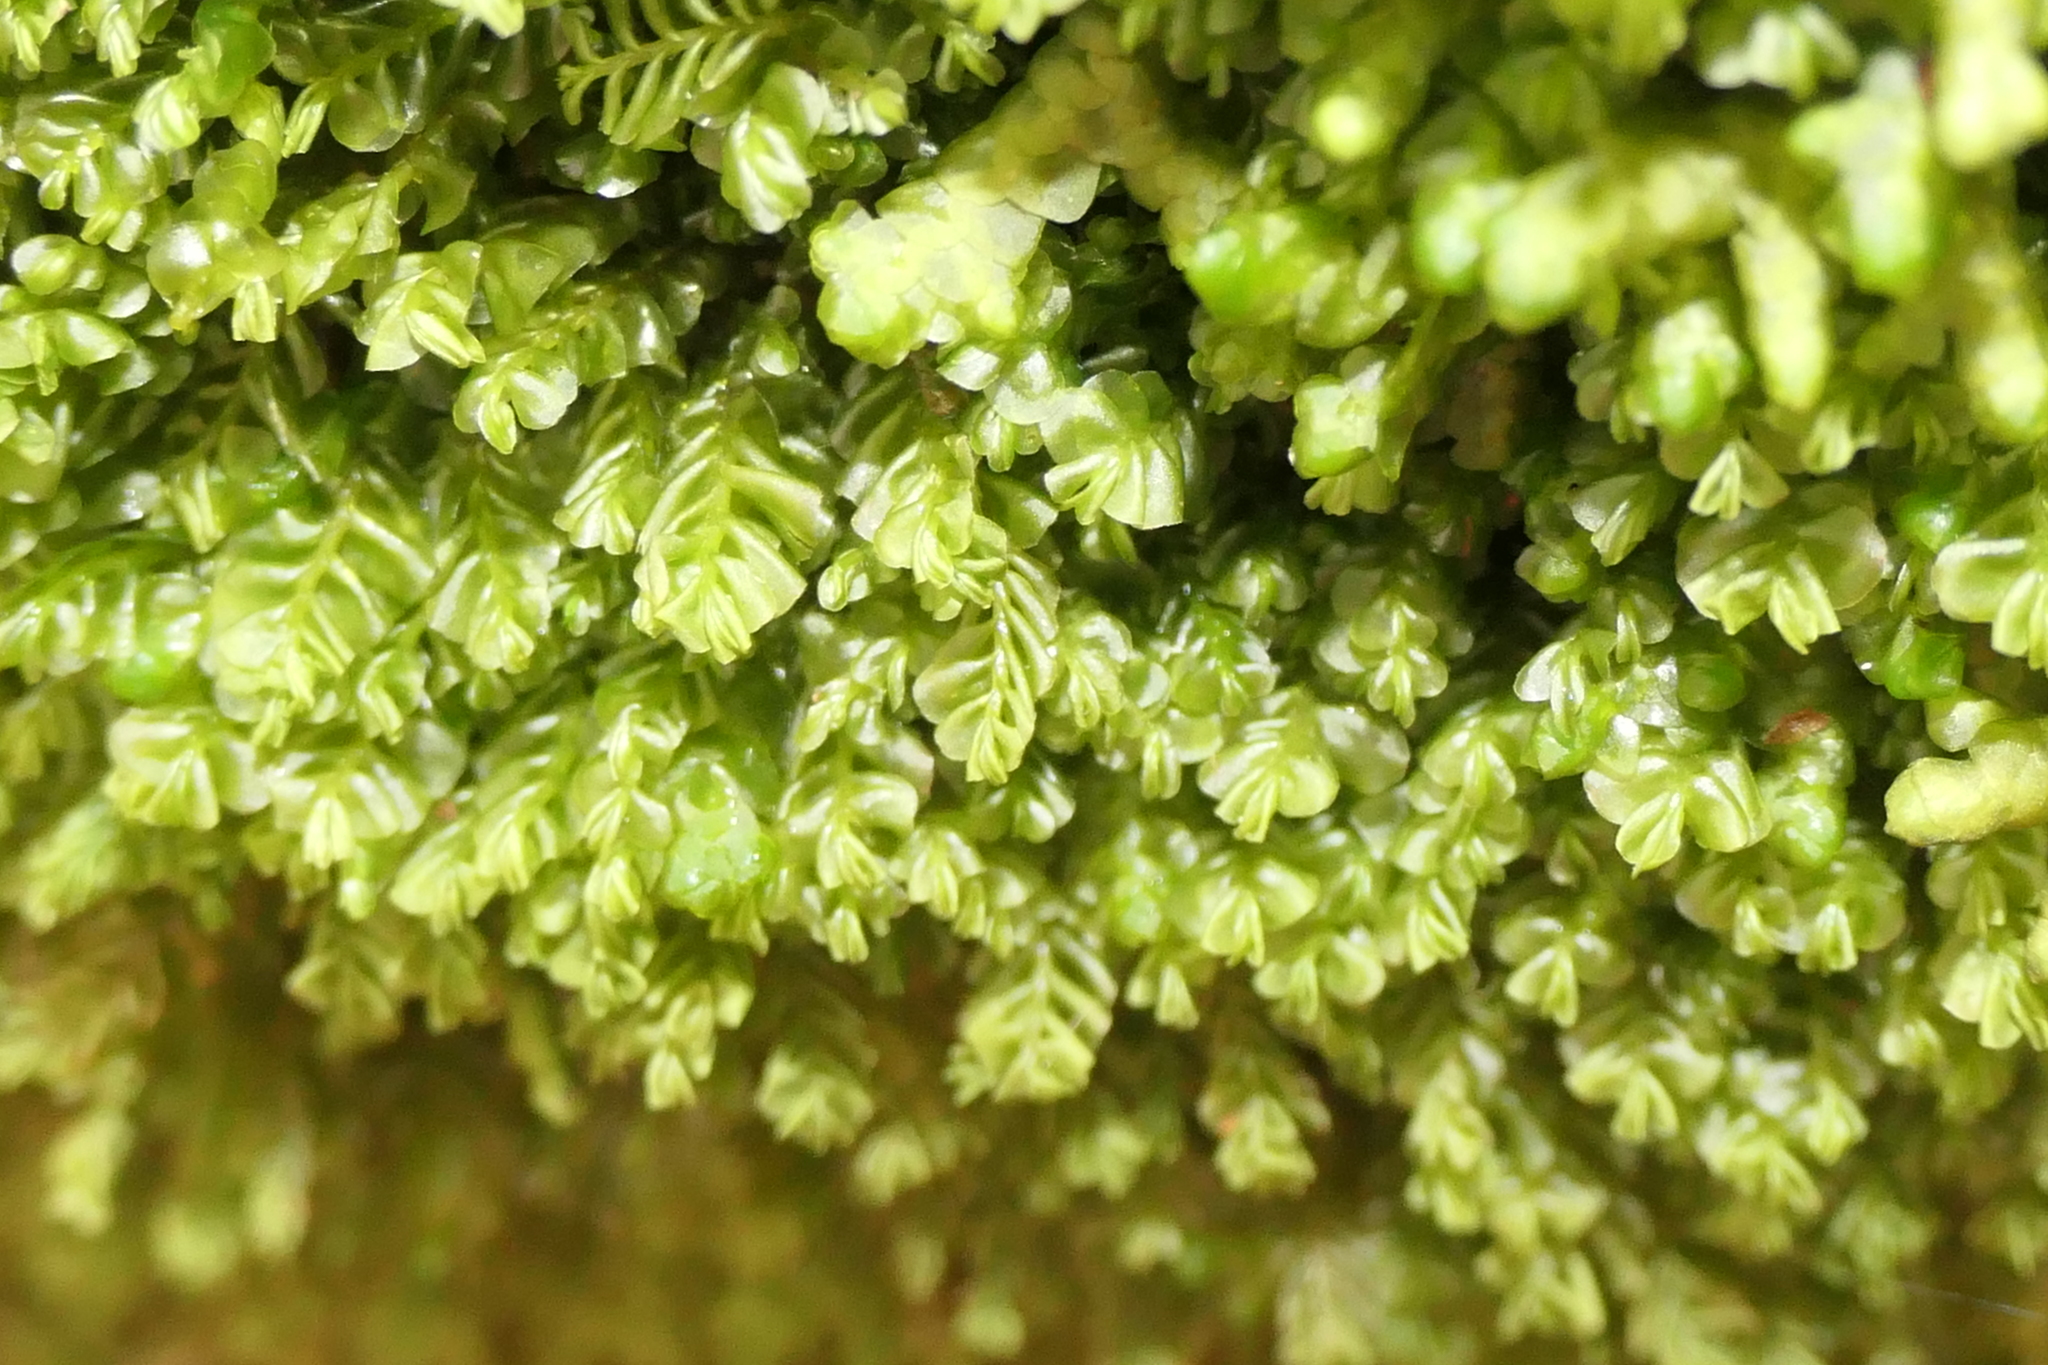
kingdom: Plantae
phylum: Marchantiophyta
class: Jungermanniopsida
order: Jungermanniales
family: Plagiochilaceae
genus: Plagiochila
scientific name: Plagiochila porelloides
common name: Lesser featherwort
